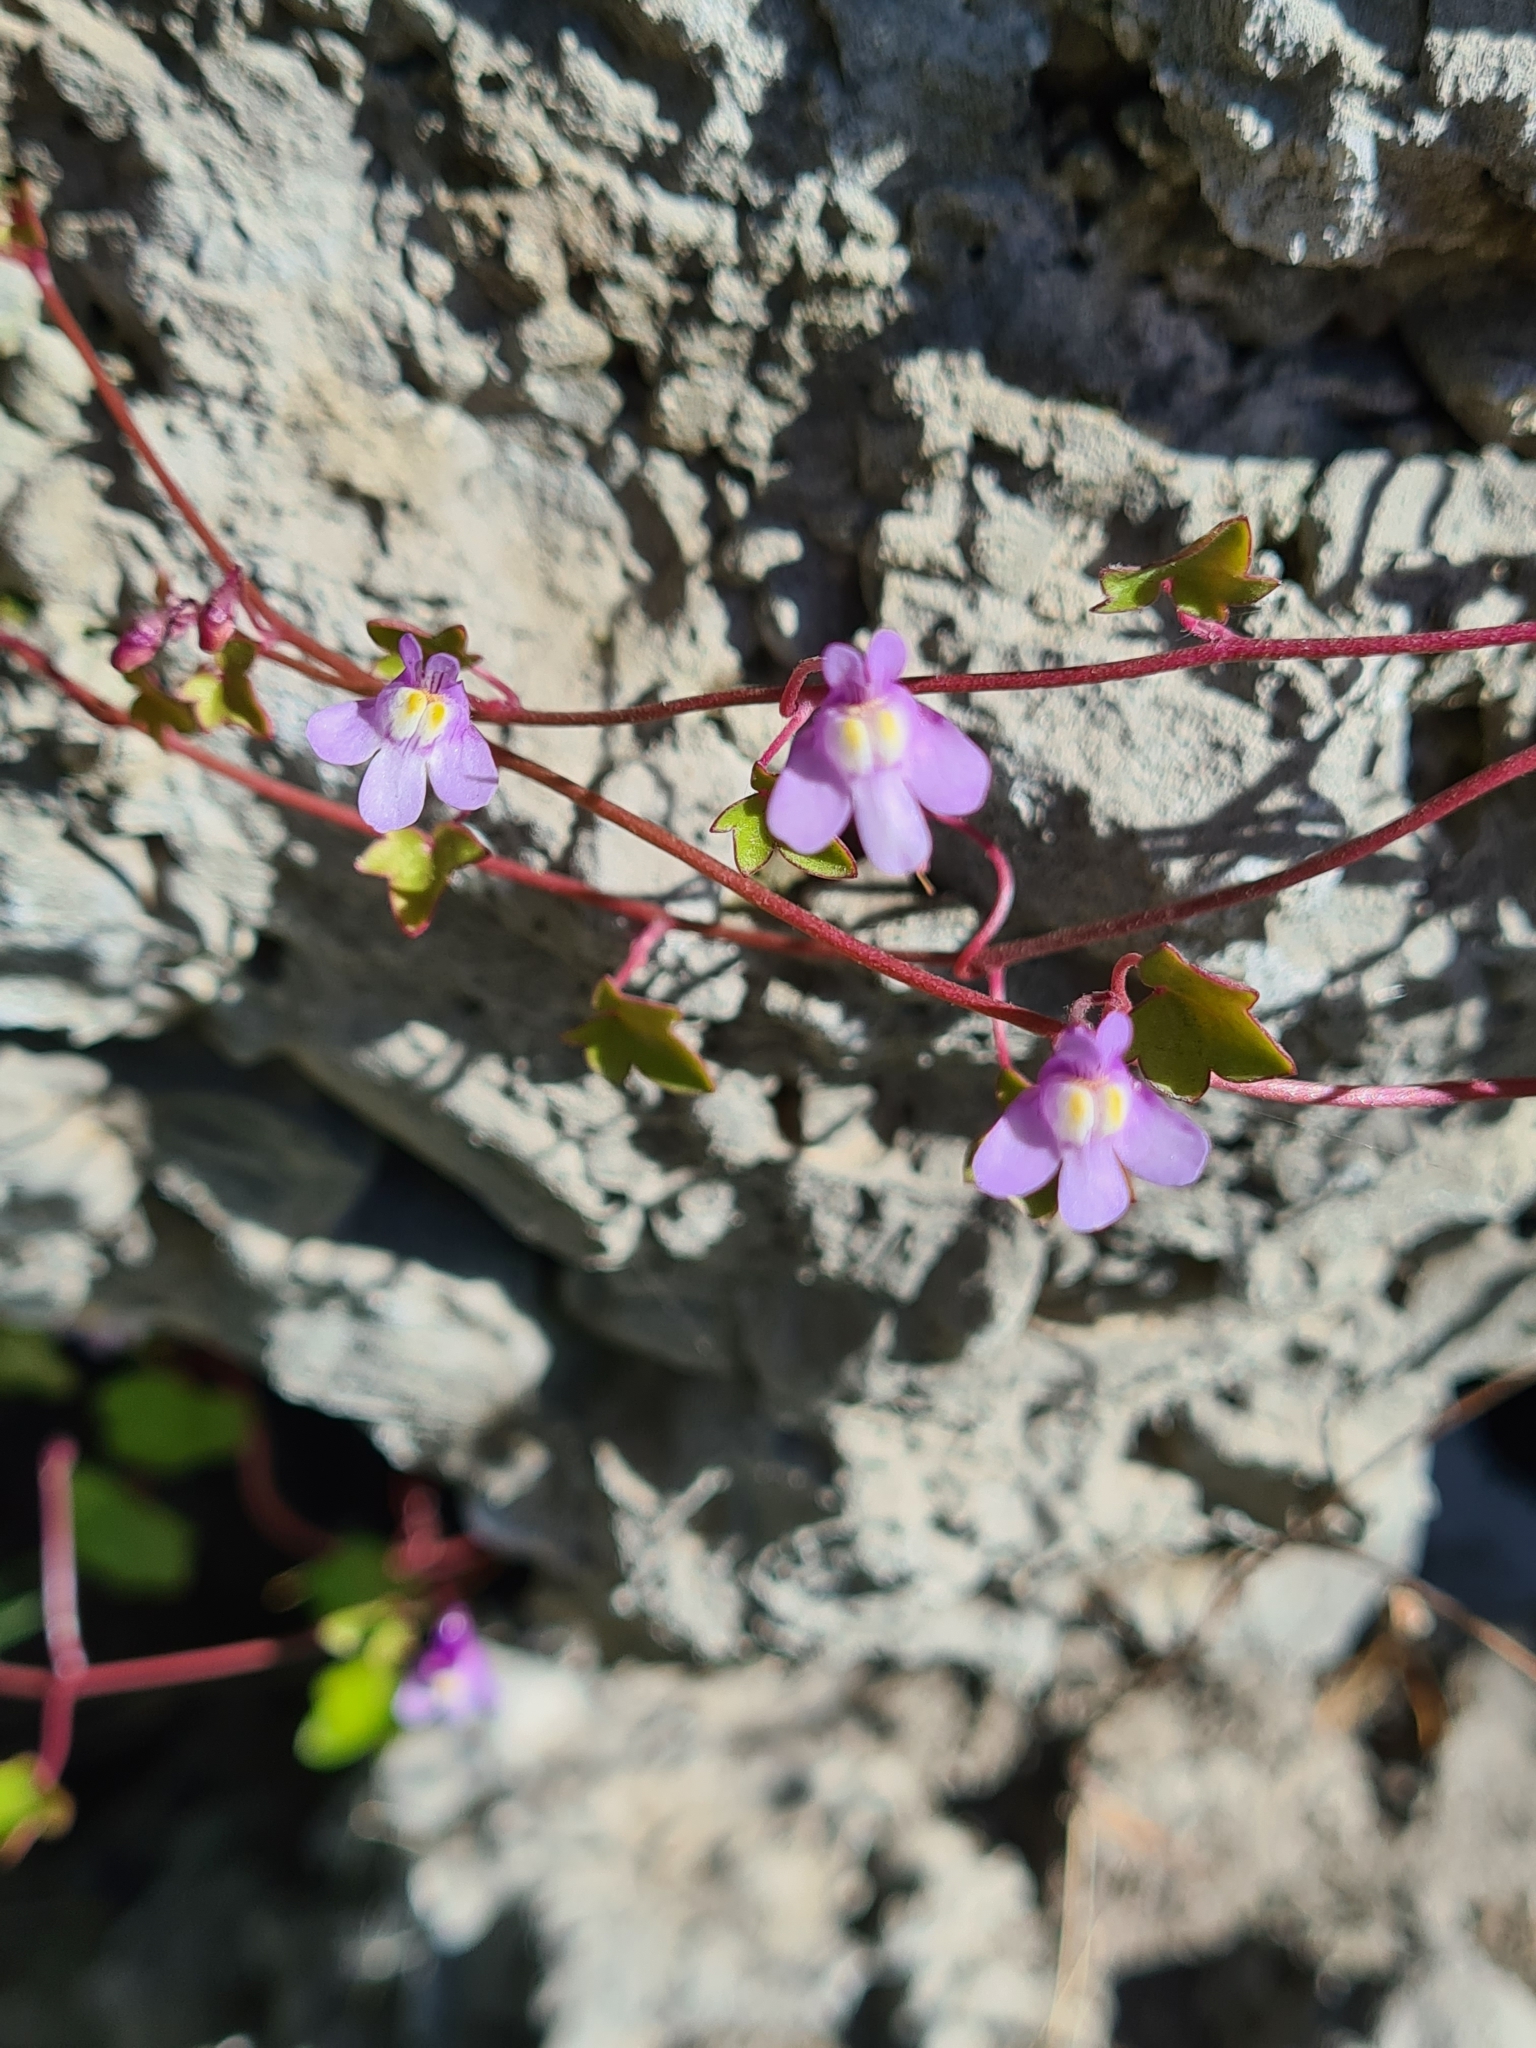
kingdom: Plantae
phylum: Tracheophyta
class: Magnoliopsida
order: Lamiales
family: Plantaginaceae
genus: Cymbalaria
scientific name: Cymbalaria muralis
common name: Ivy-leaved toadflax
